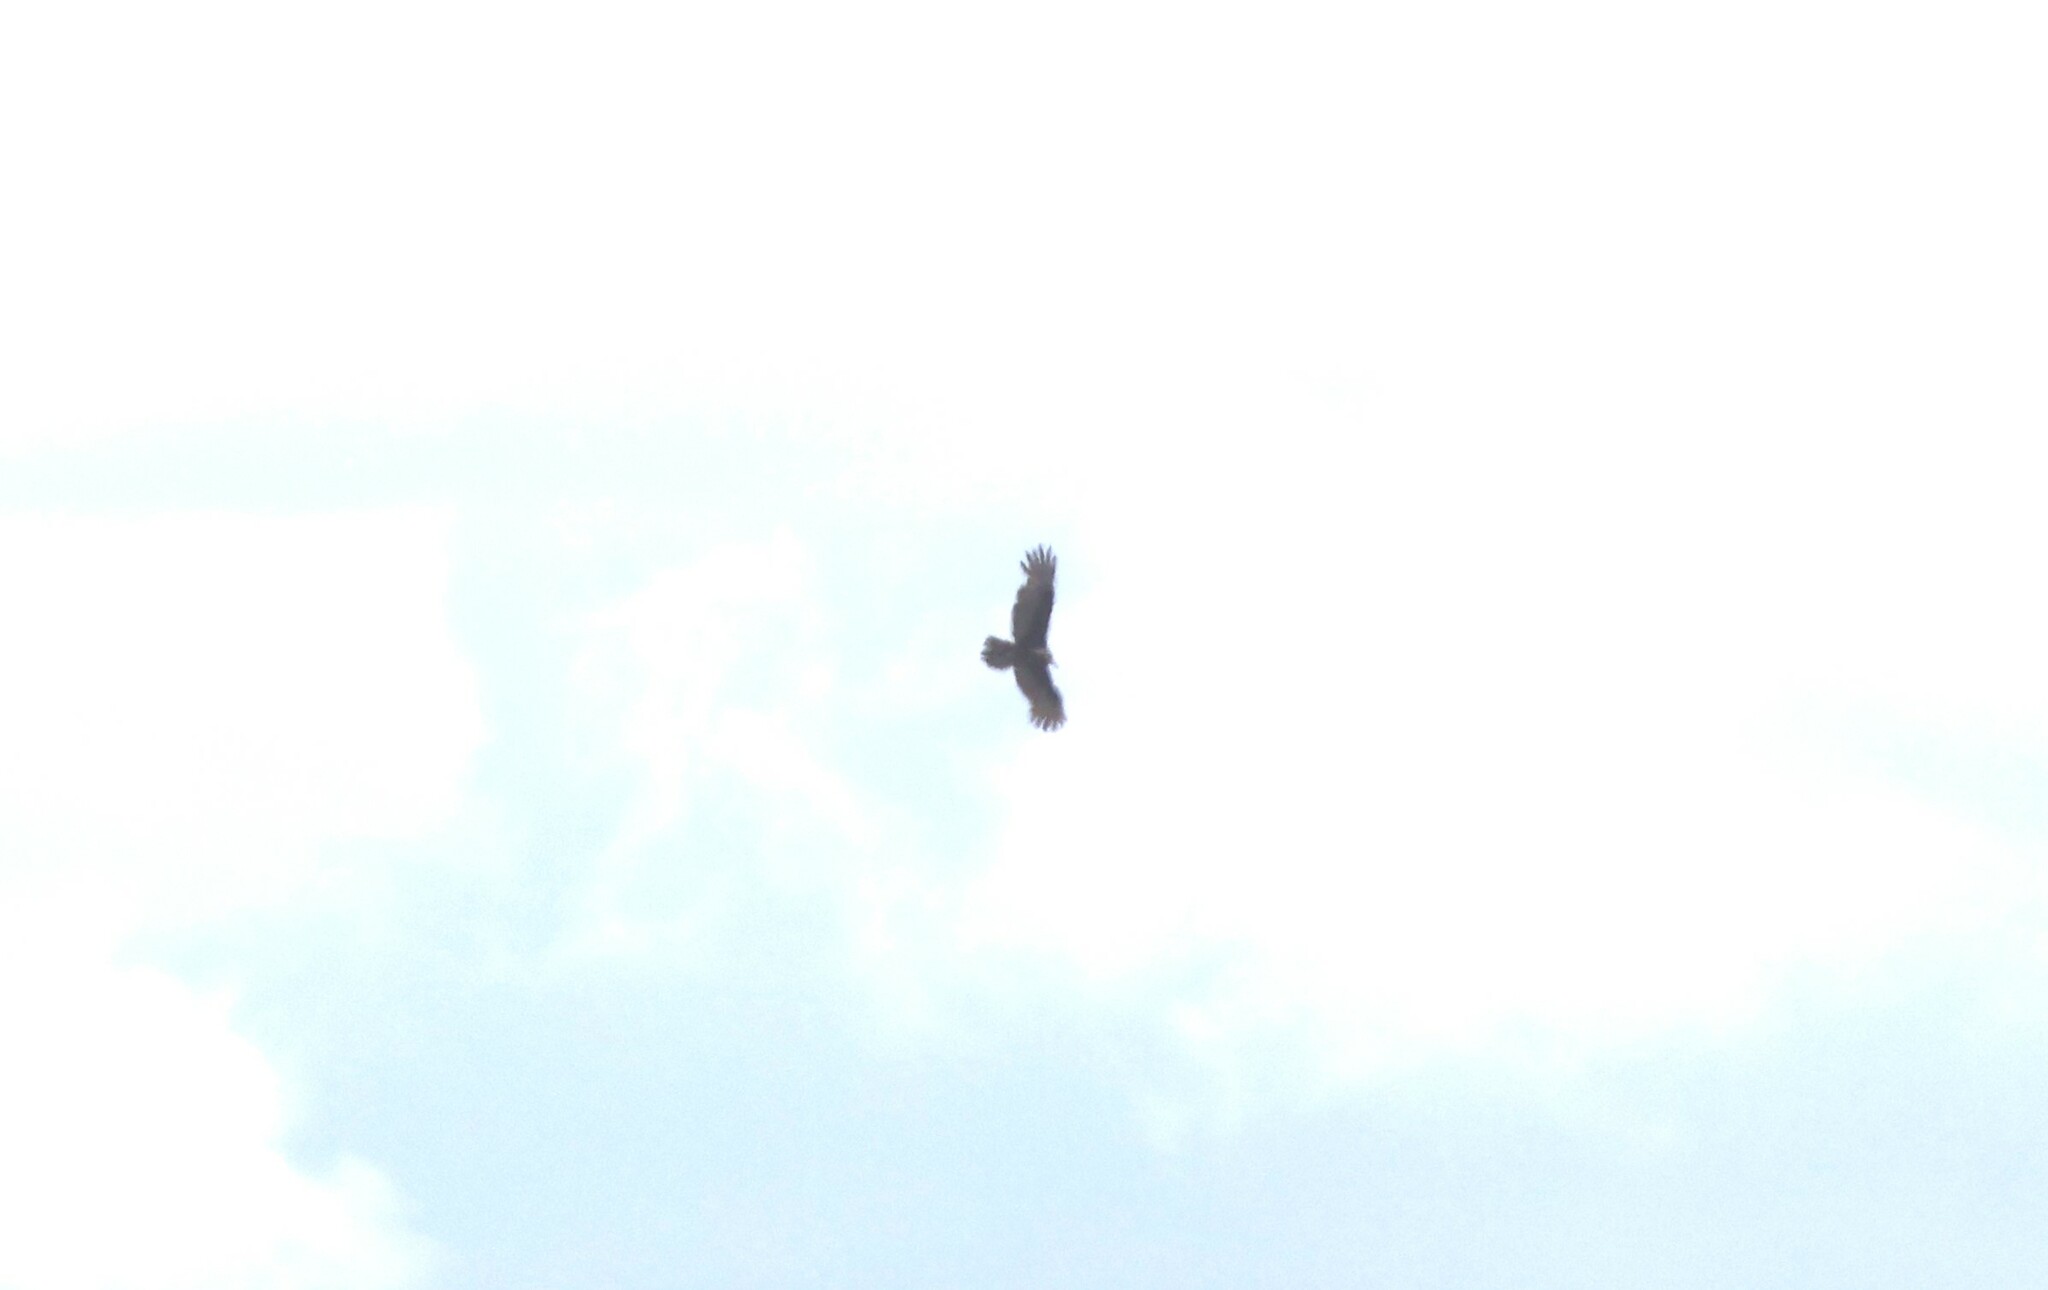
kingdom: Animalia
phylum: Chordata
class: Aves
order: Accipitriformes
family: Cathartidae
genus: Cathartes
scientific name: Cathartes aura
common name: Turkey vulture
